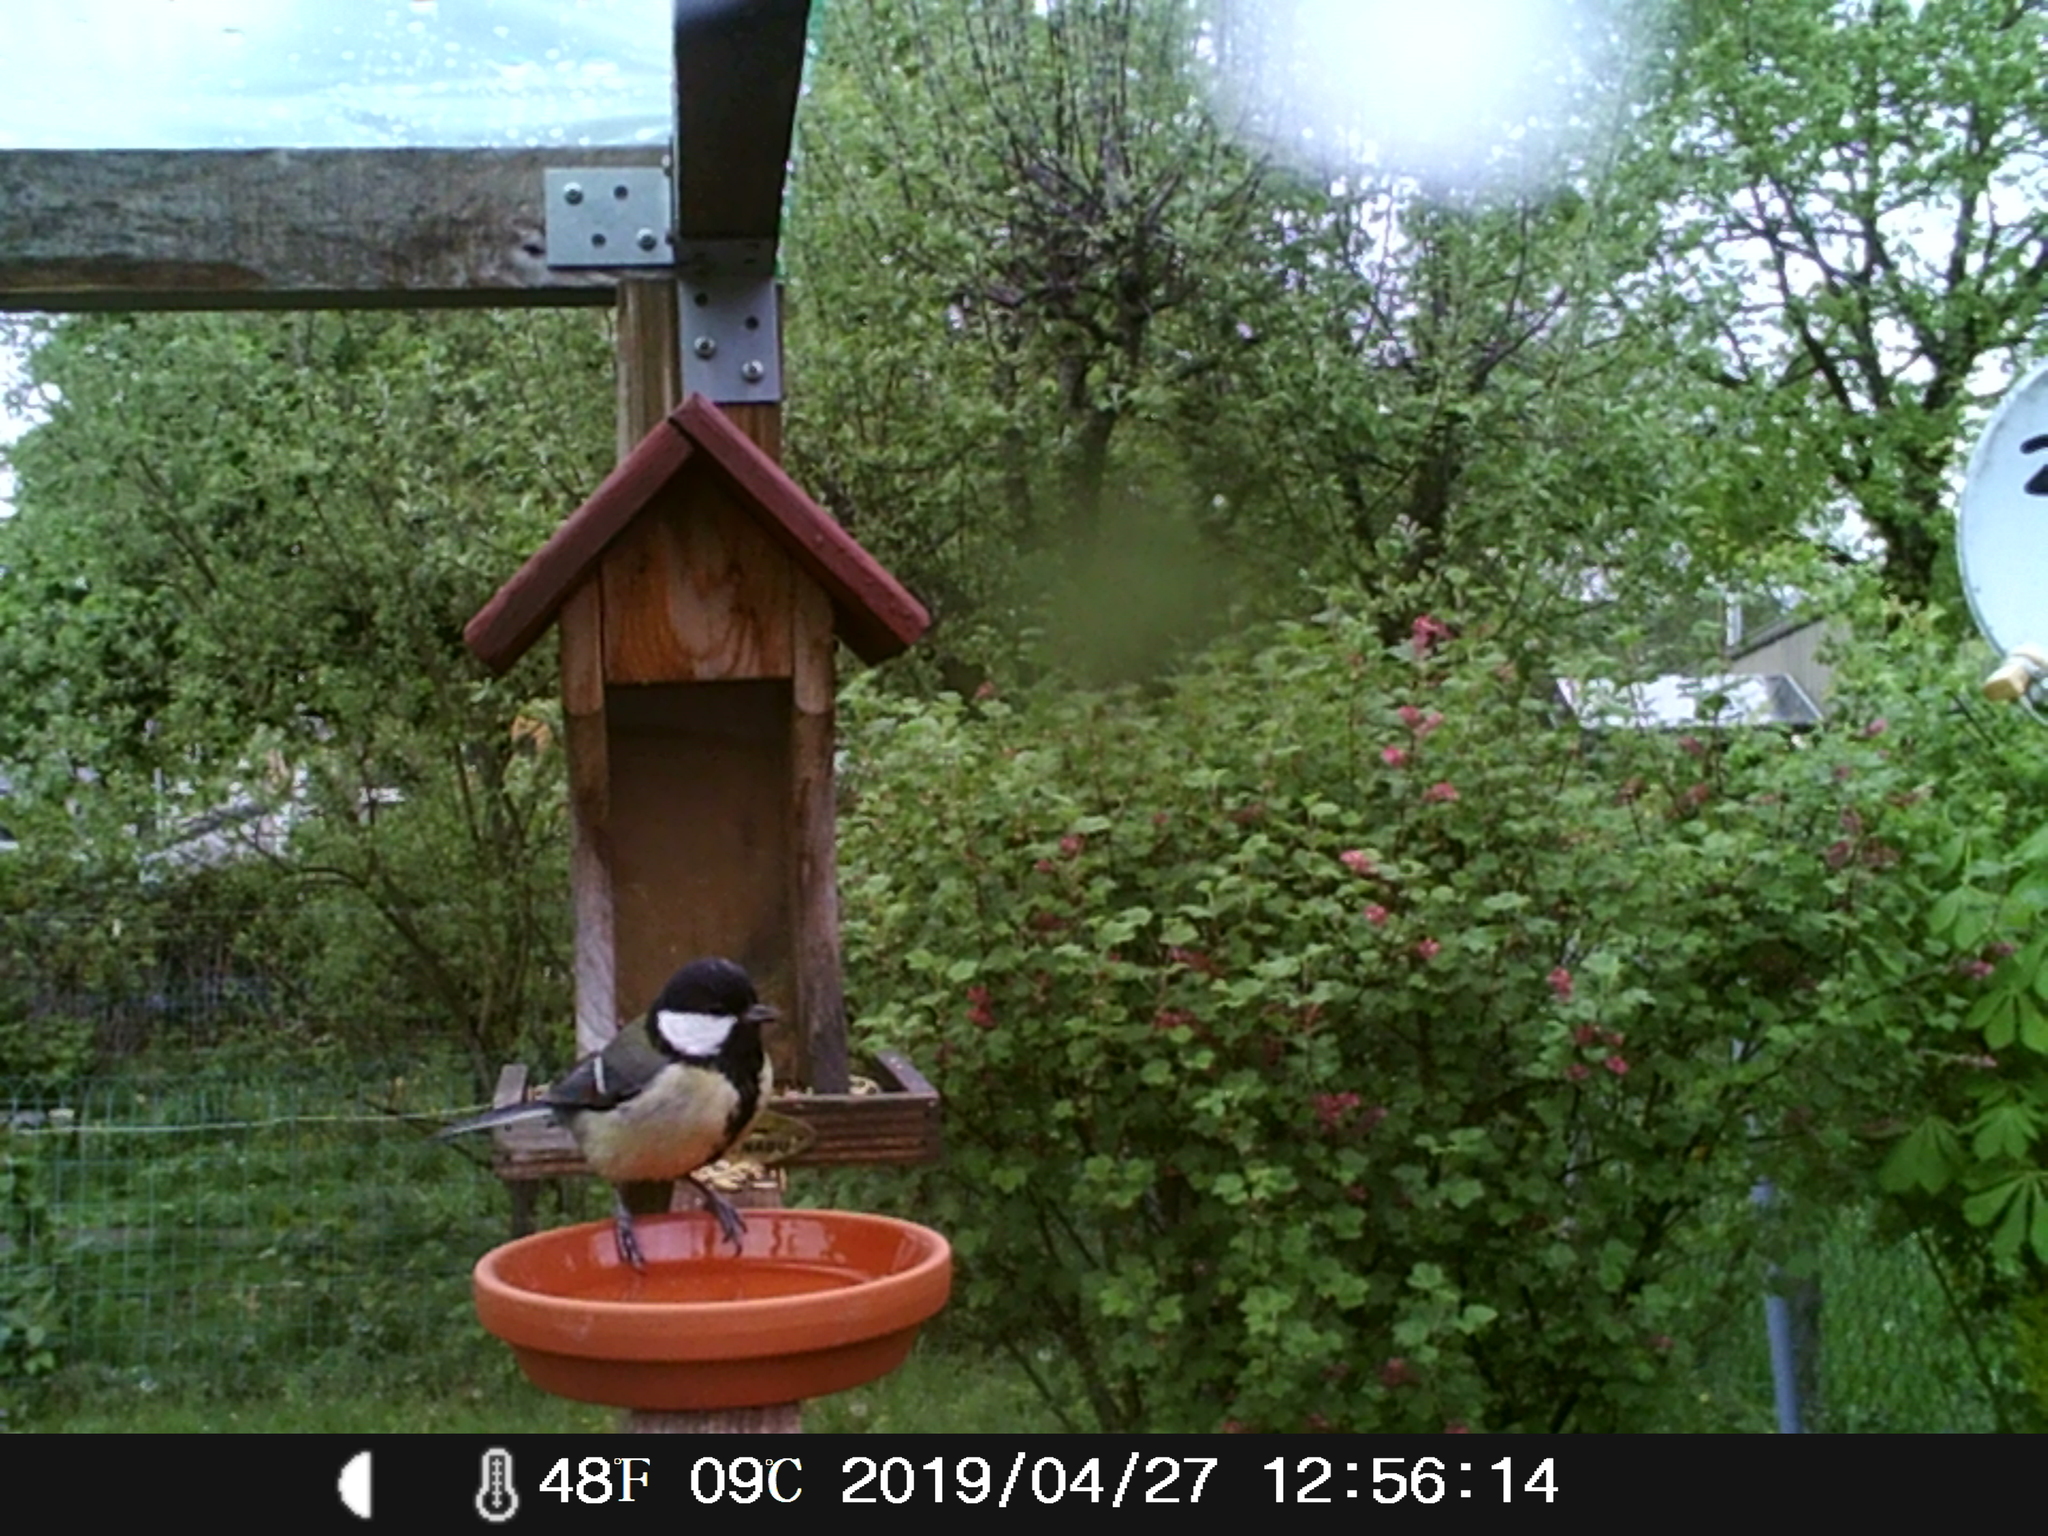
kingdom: Animalia
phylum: Chordata
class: Aves
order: Passeriformes
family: Paridae
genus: Parus
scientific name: Parus major
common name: Great tit
